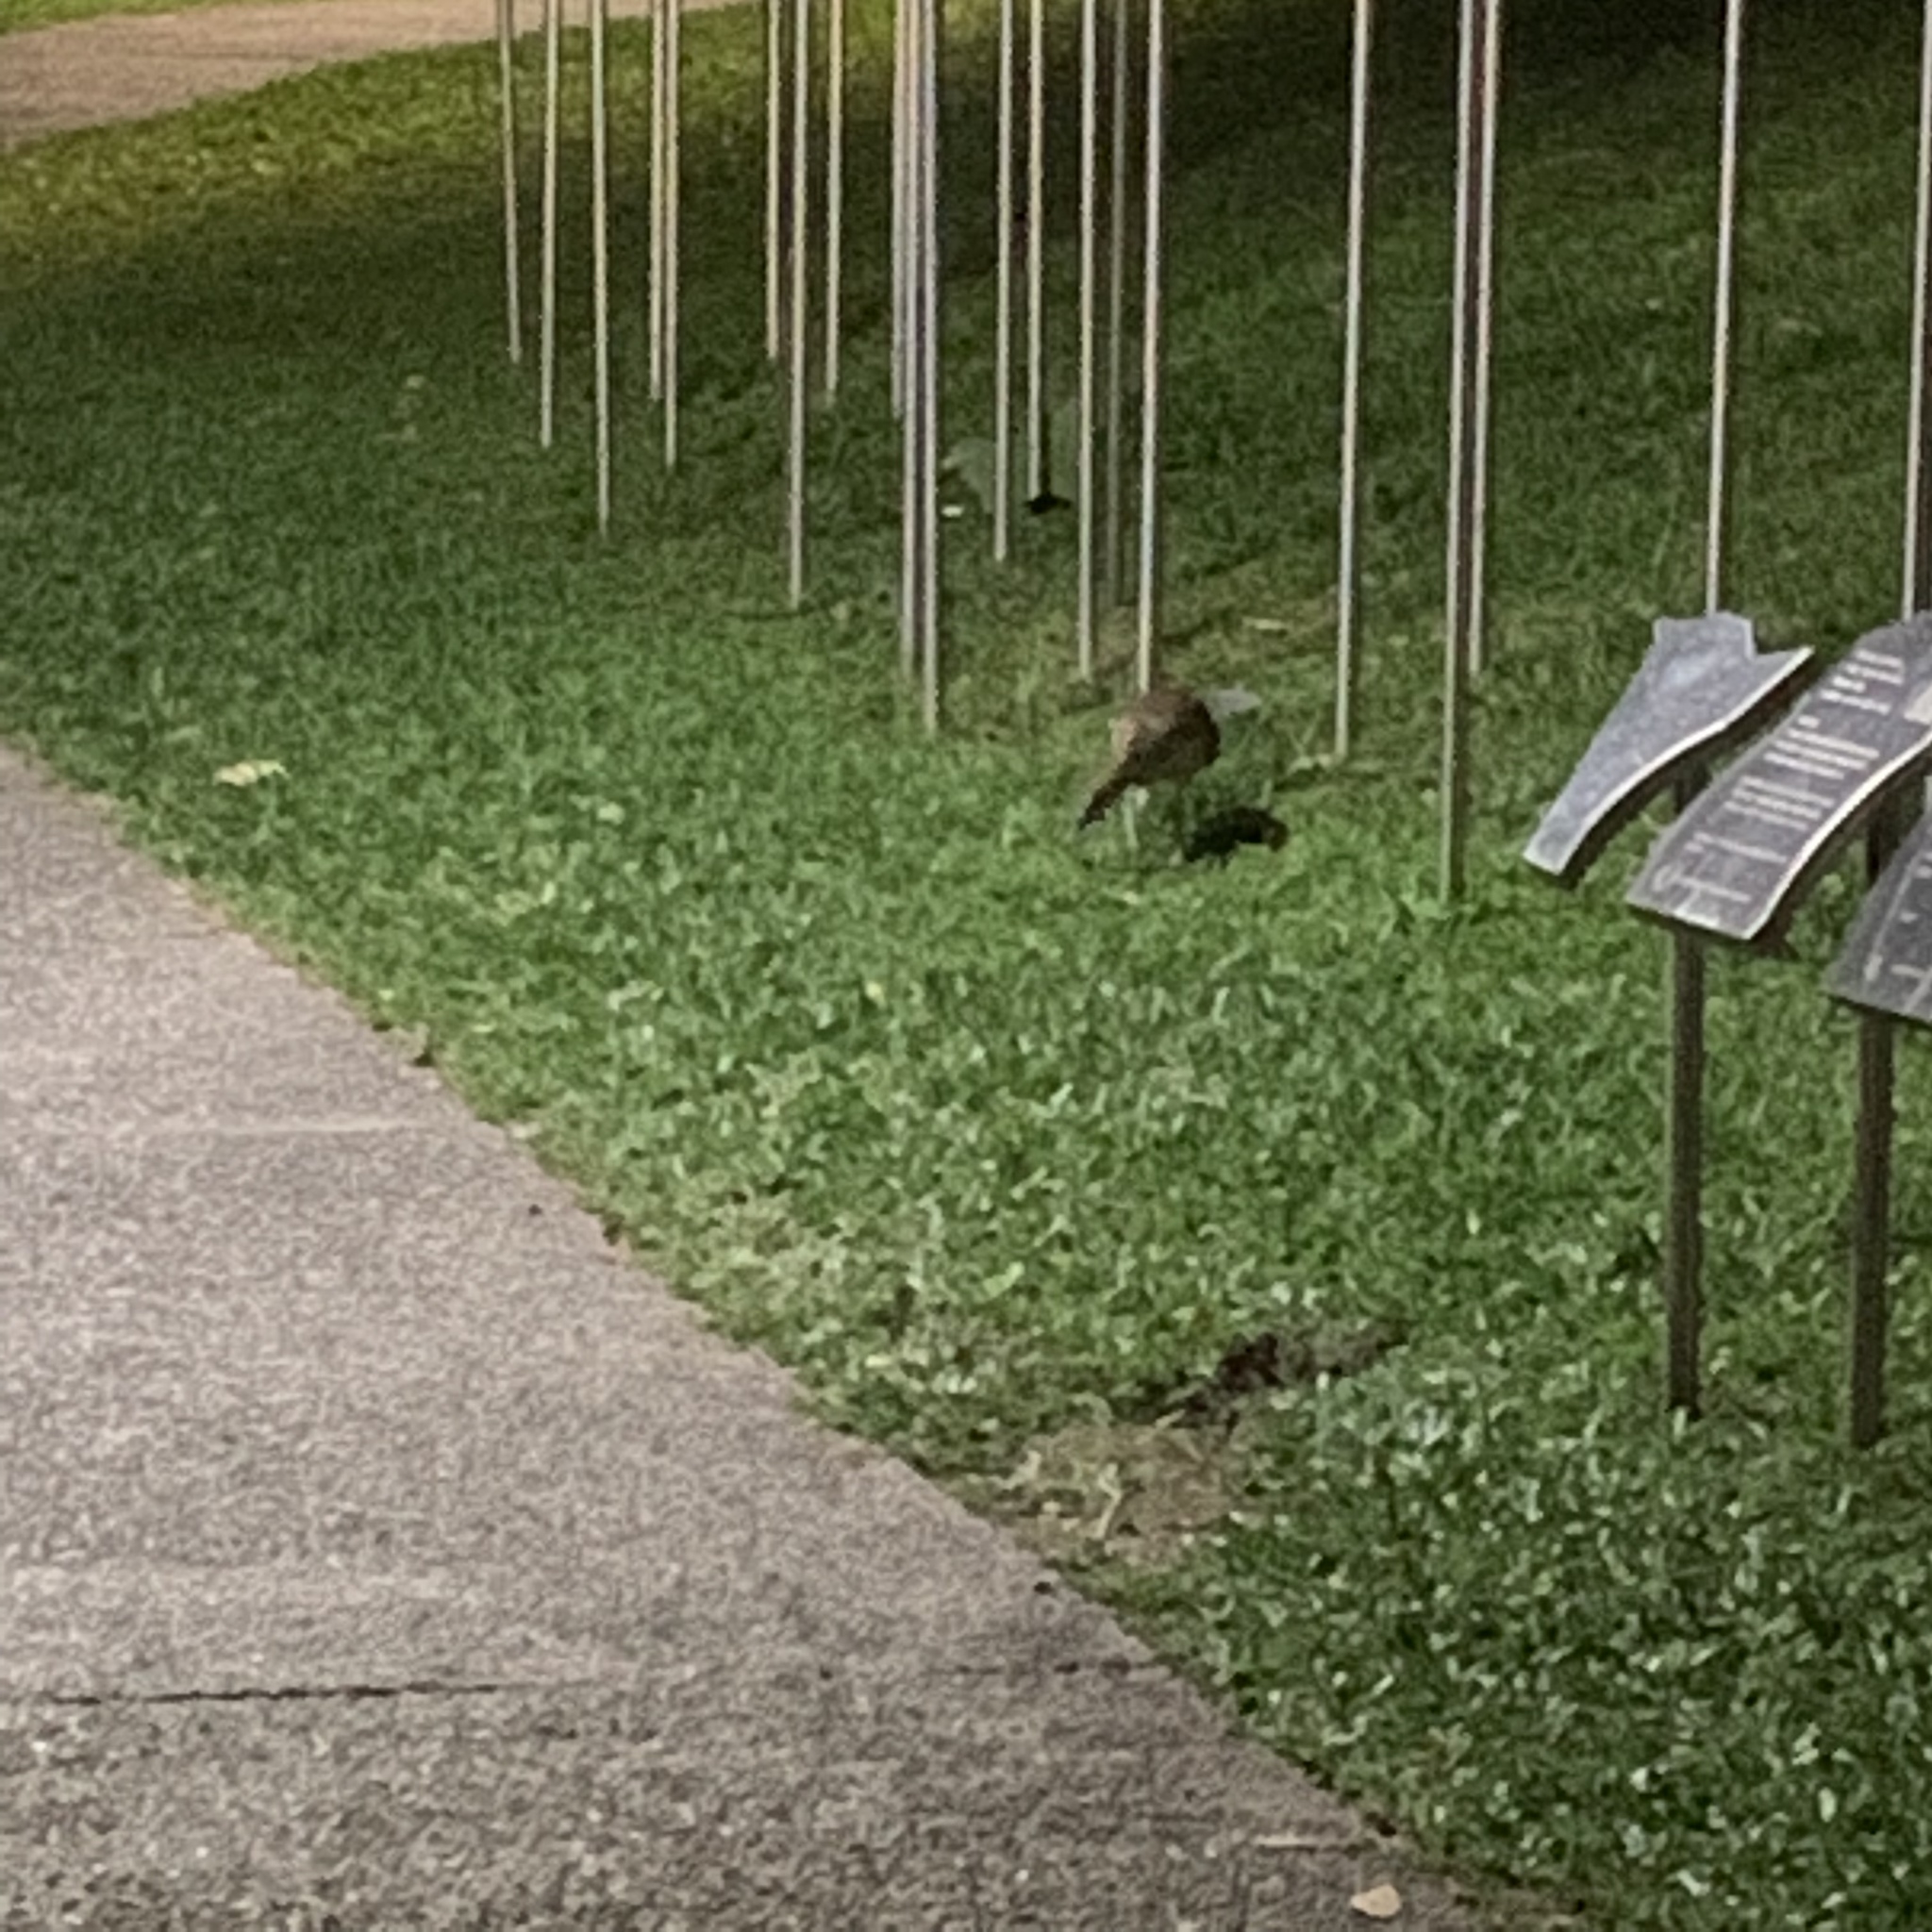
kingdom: Animalia
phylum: Chordata
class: Aves
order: Pelecaniformes
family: Ardeidae
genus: Gorsachius
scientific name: Gorsachius melanolophus
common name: Malayan night heron
